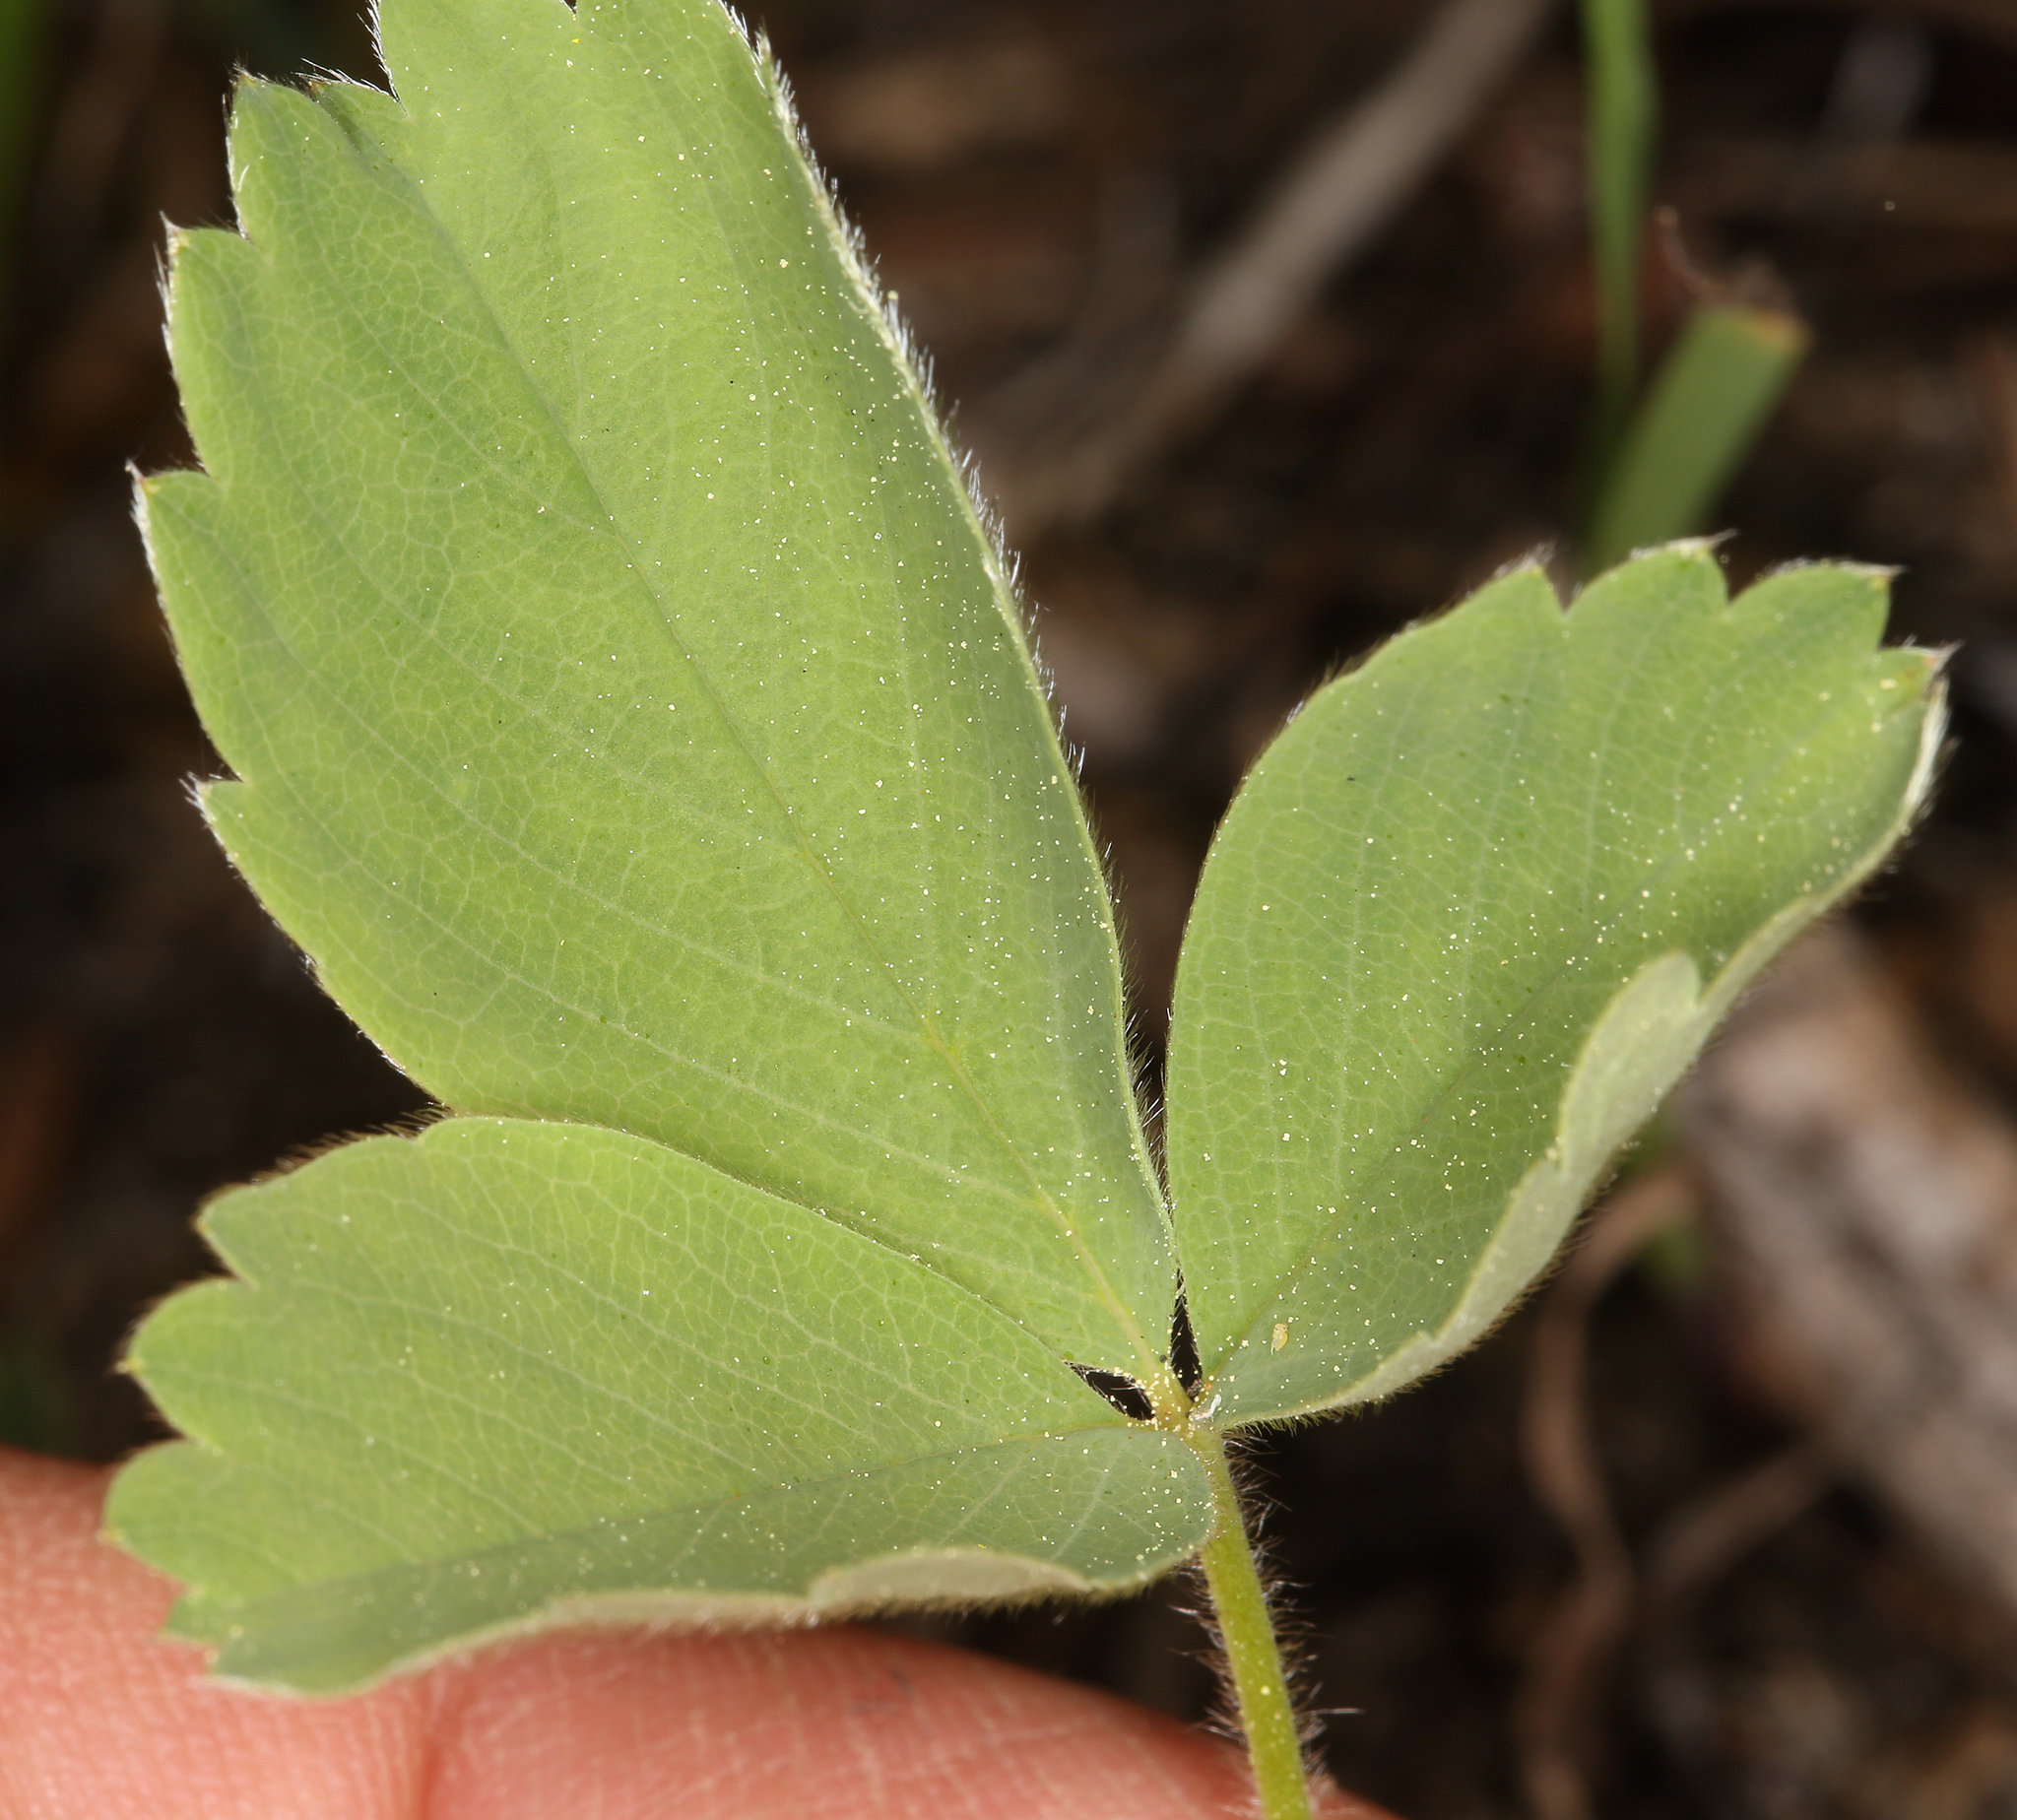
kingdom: Plantae
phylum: Tracheophyta
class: Magnoliopsida
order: Rosales
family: Rosaceae
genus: Fragaria
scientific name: Fragaria virginiana
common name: Thickleaved wild strawberry
